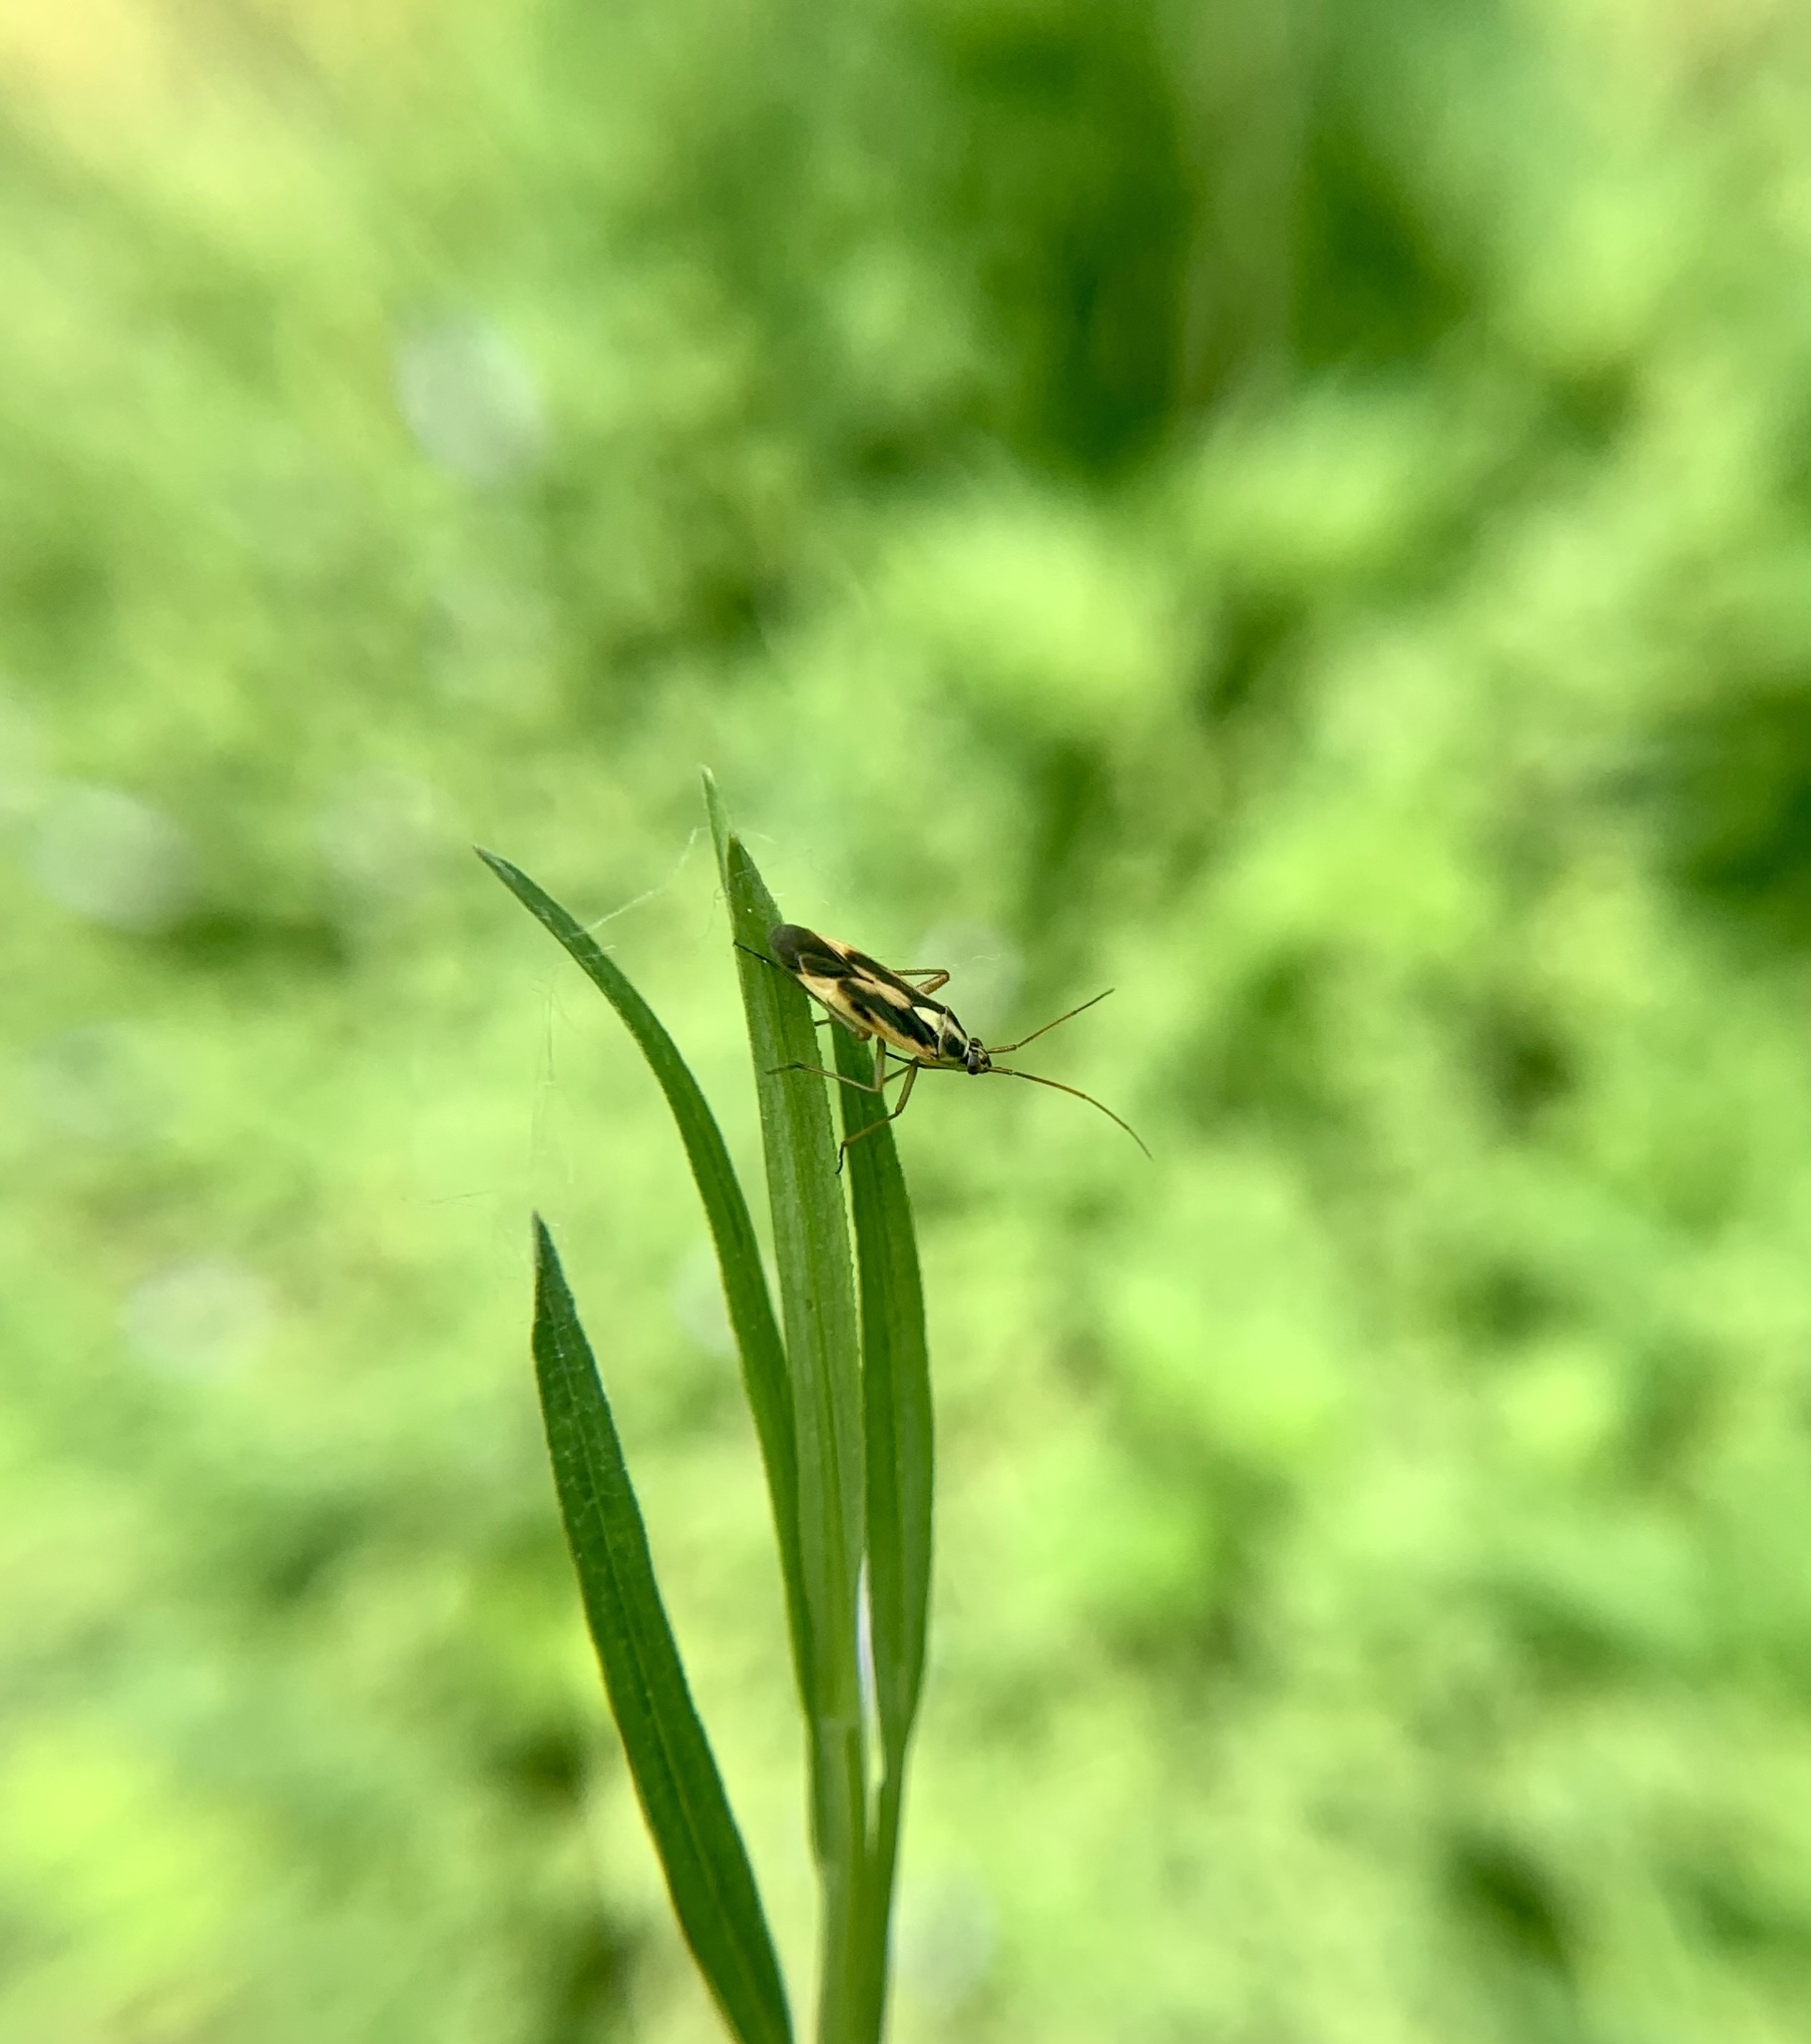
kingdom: Animalia
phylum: Arthropoda
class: Insecta
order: Hemiptera
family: Miridae
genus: Stenotus
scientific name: Stenotus binotatus
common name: Plant bug
